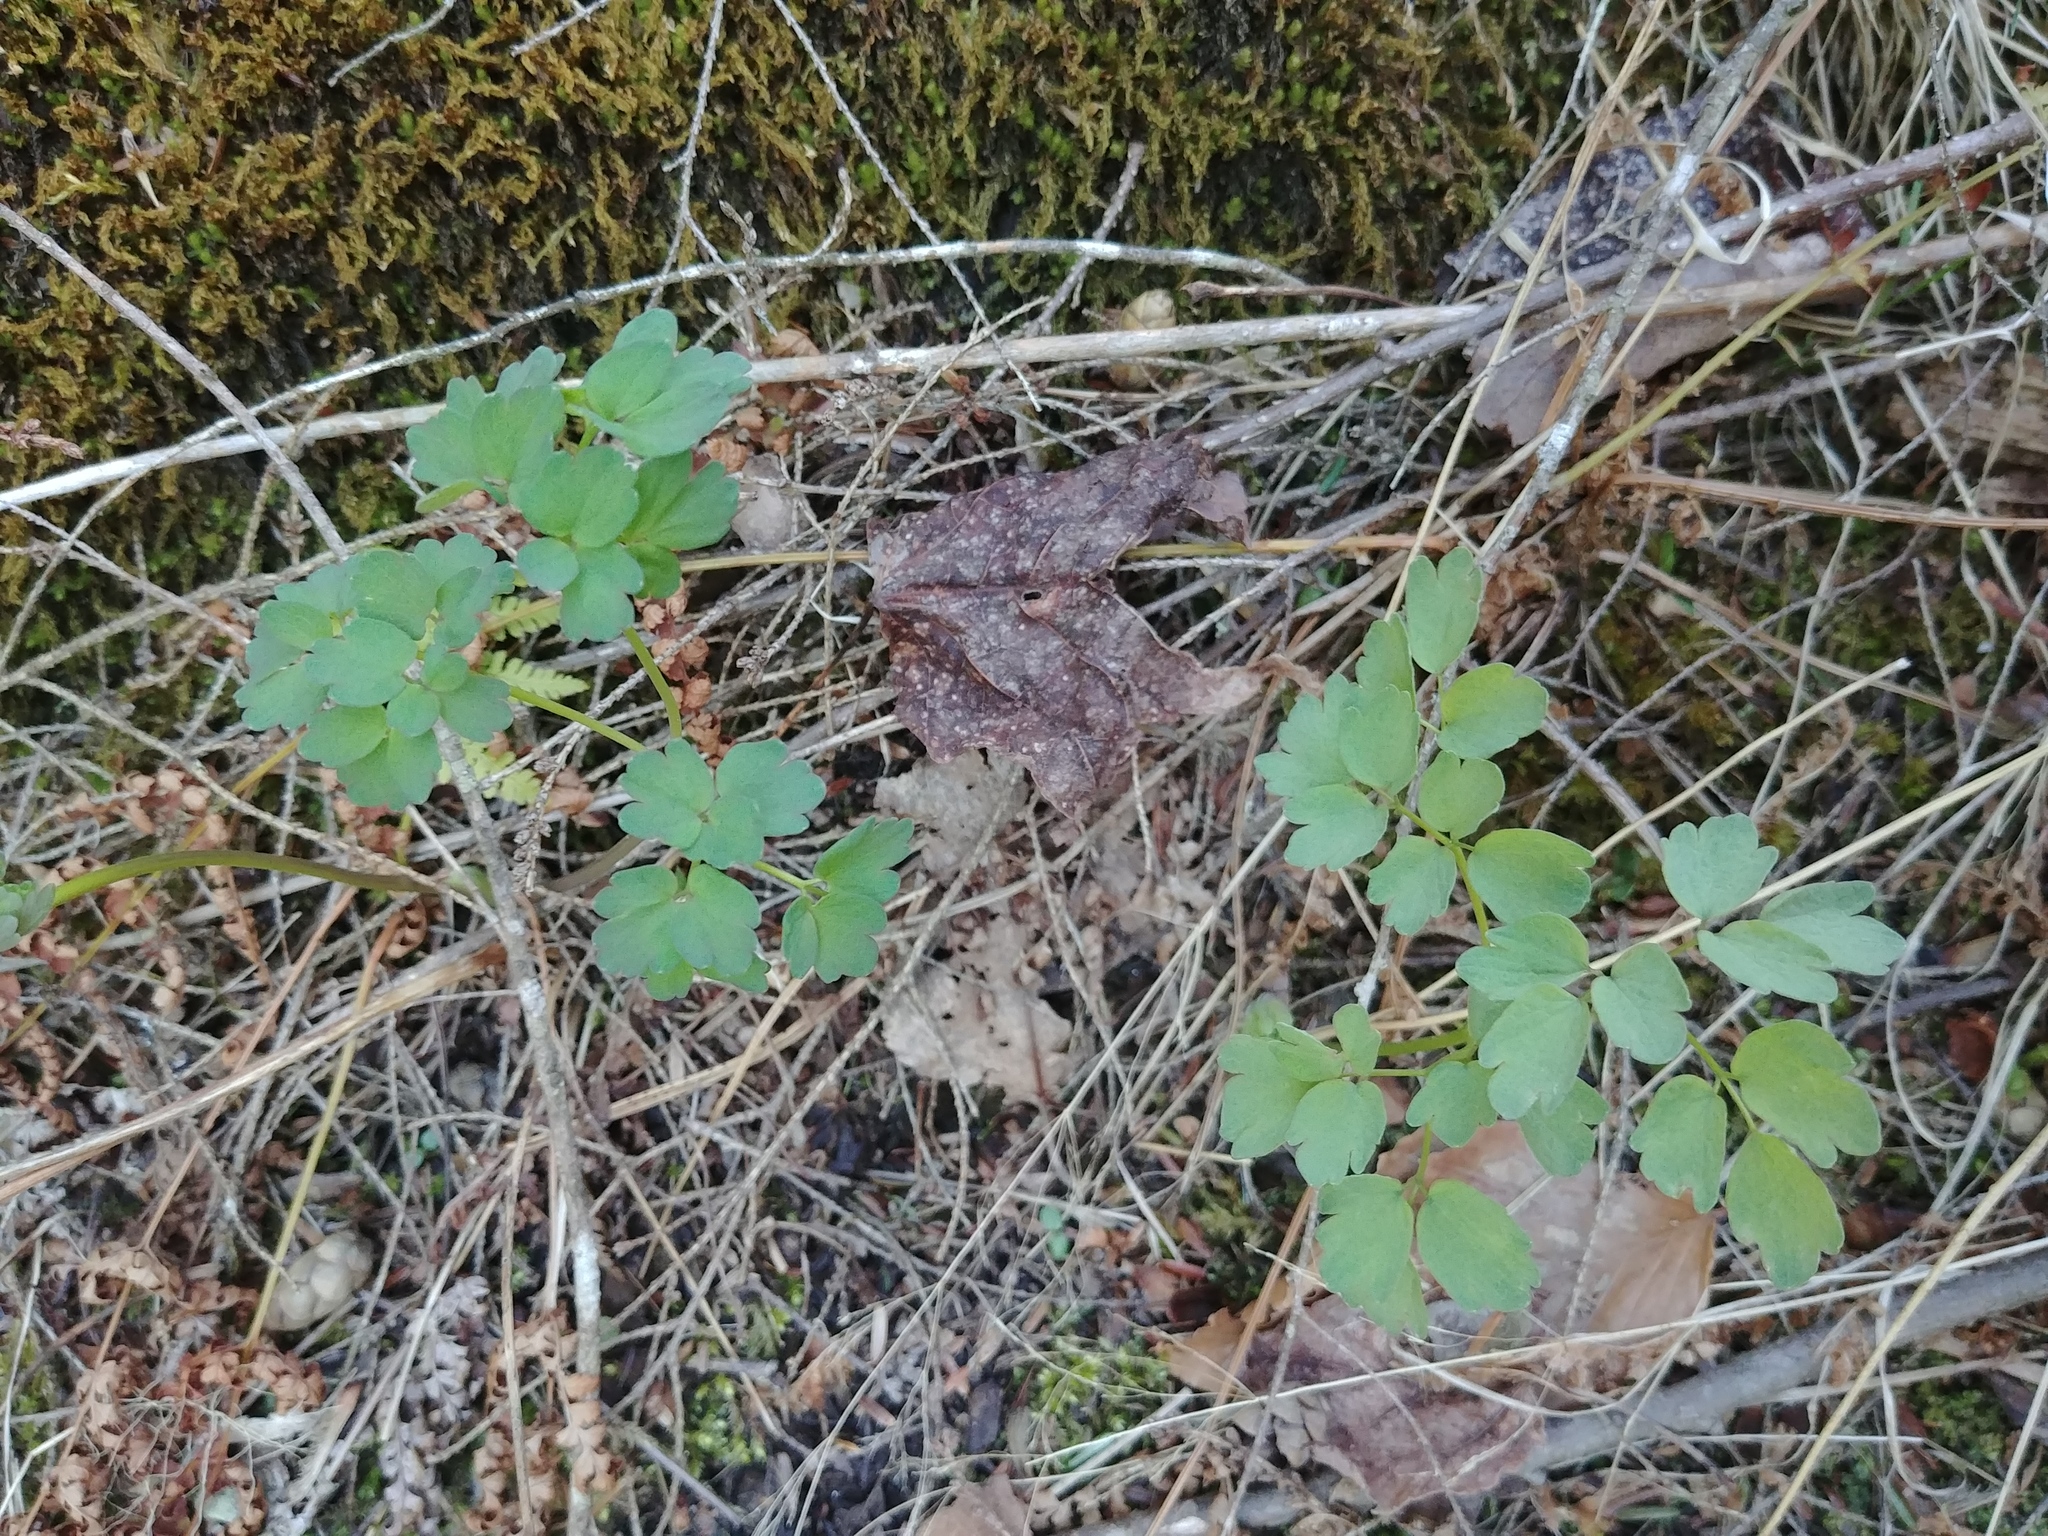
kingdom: Plantae
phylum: Tracheophyta
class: Magnoliopsida
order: Ranunculales
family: Ranunculaceae
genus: Thalictrum
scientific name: Thalictrum
